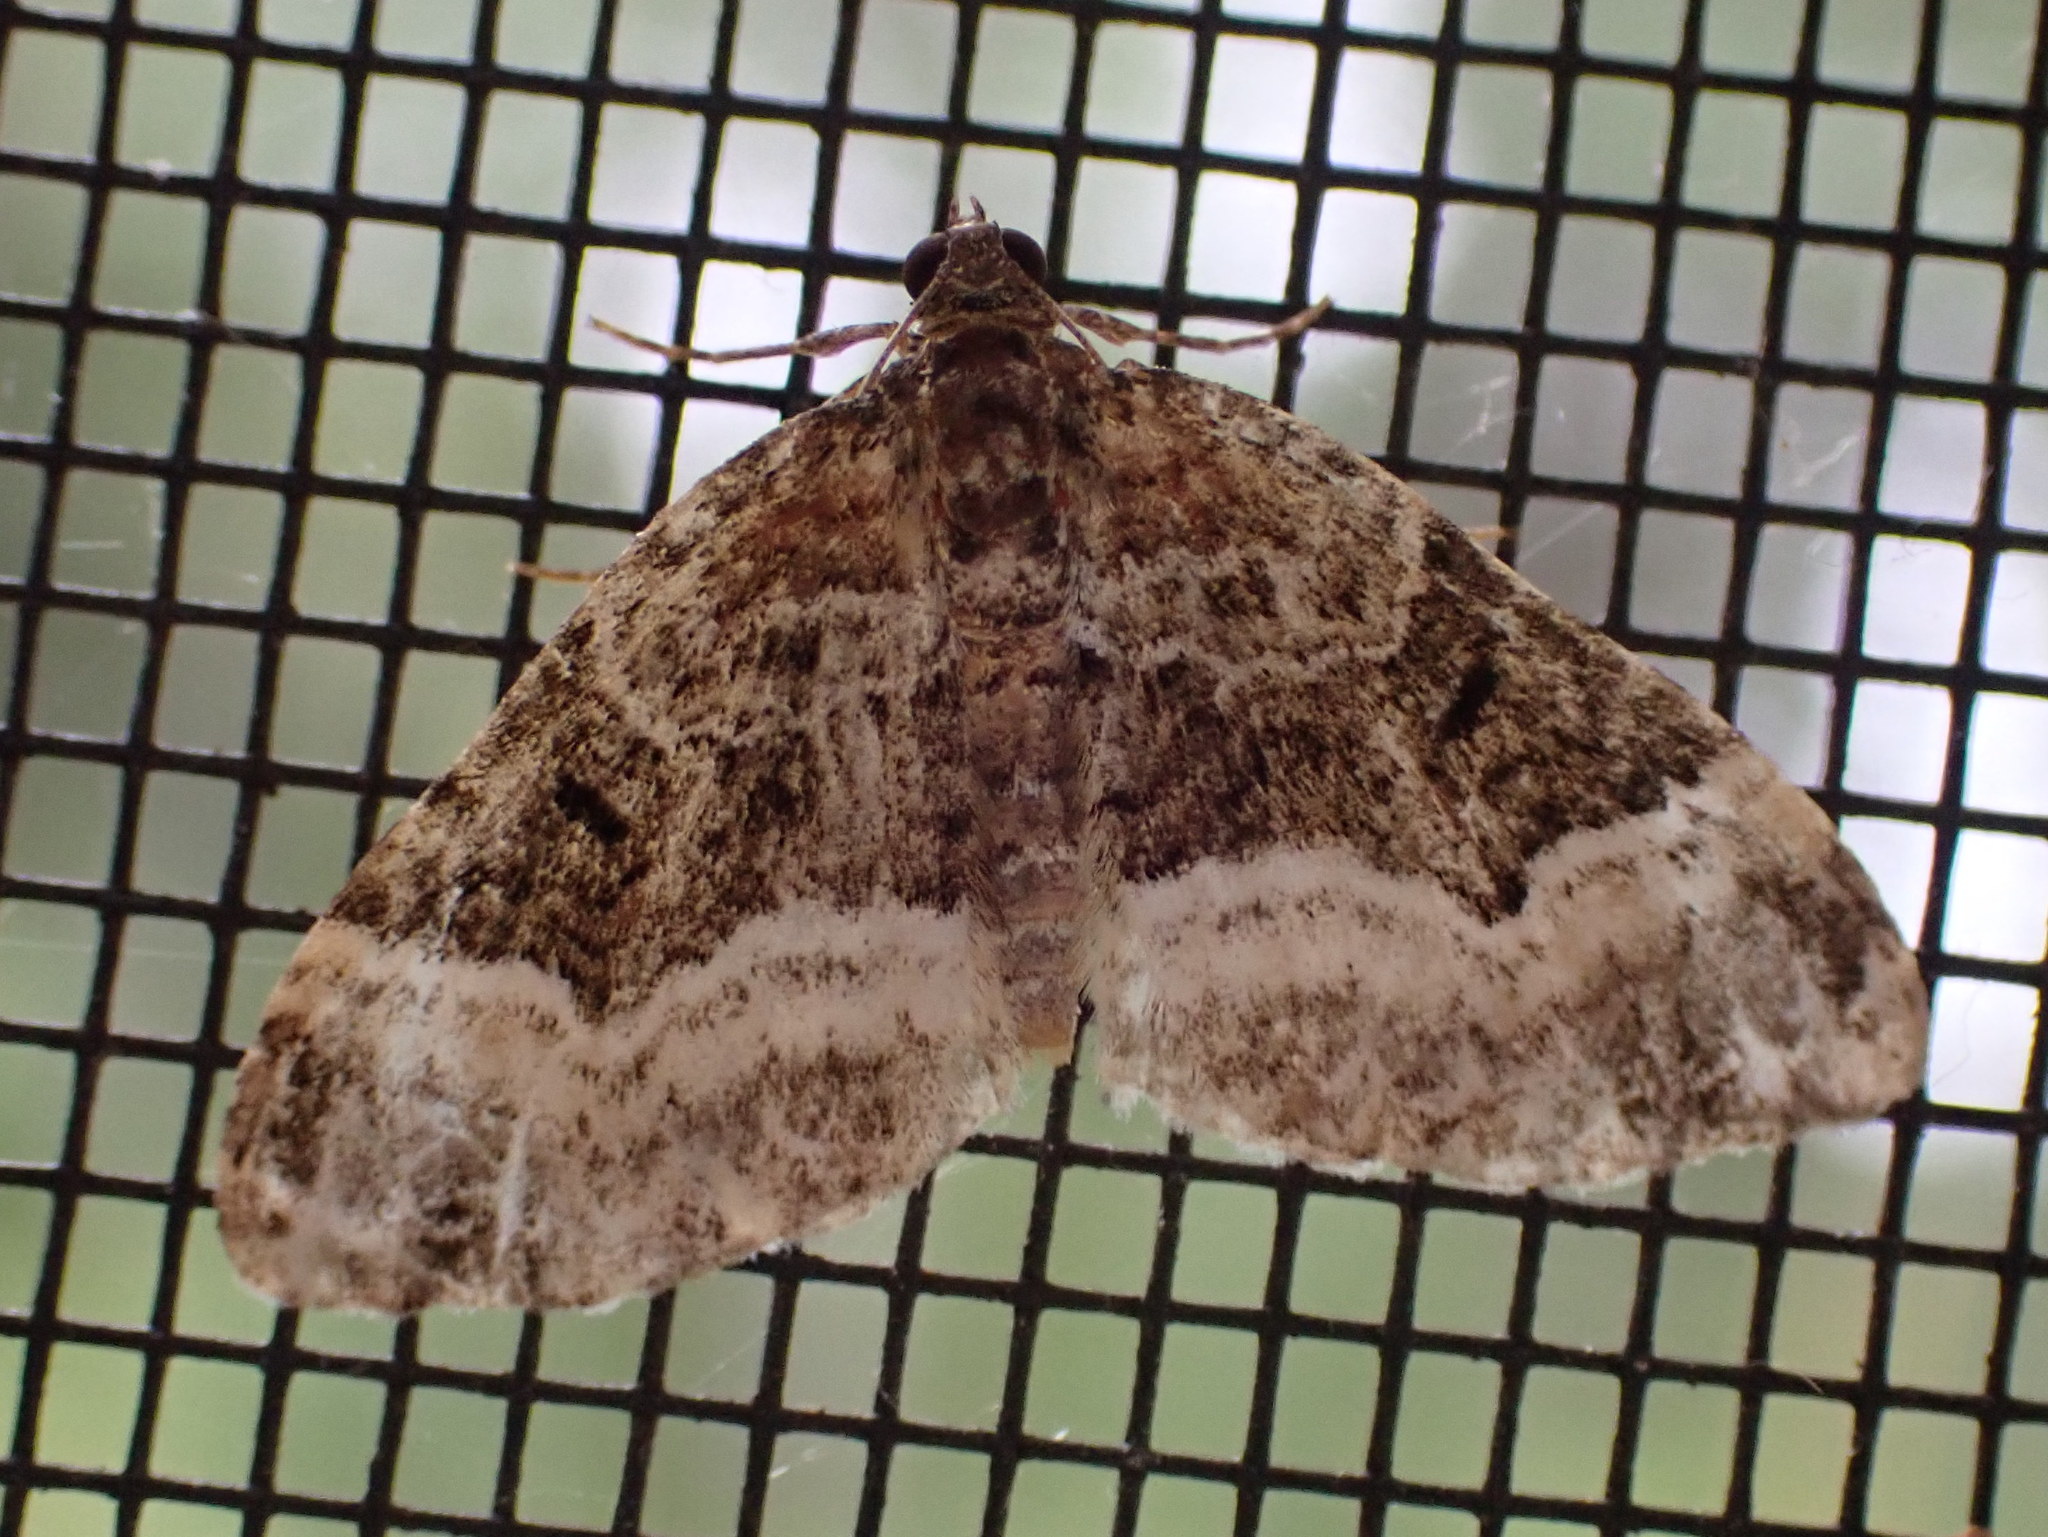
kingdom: Animalia
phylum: Arthropoda
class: Insecta
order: Lepidoptera
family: Geometridae
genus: Euphyia
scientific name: Euphyia intermediata
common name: Sharp-angled carpet
